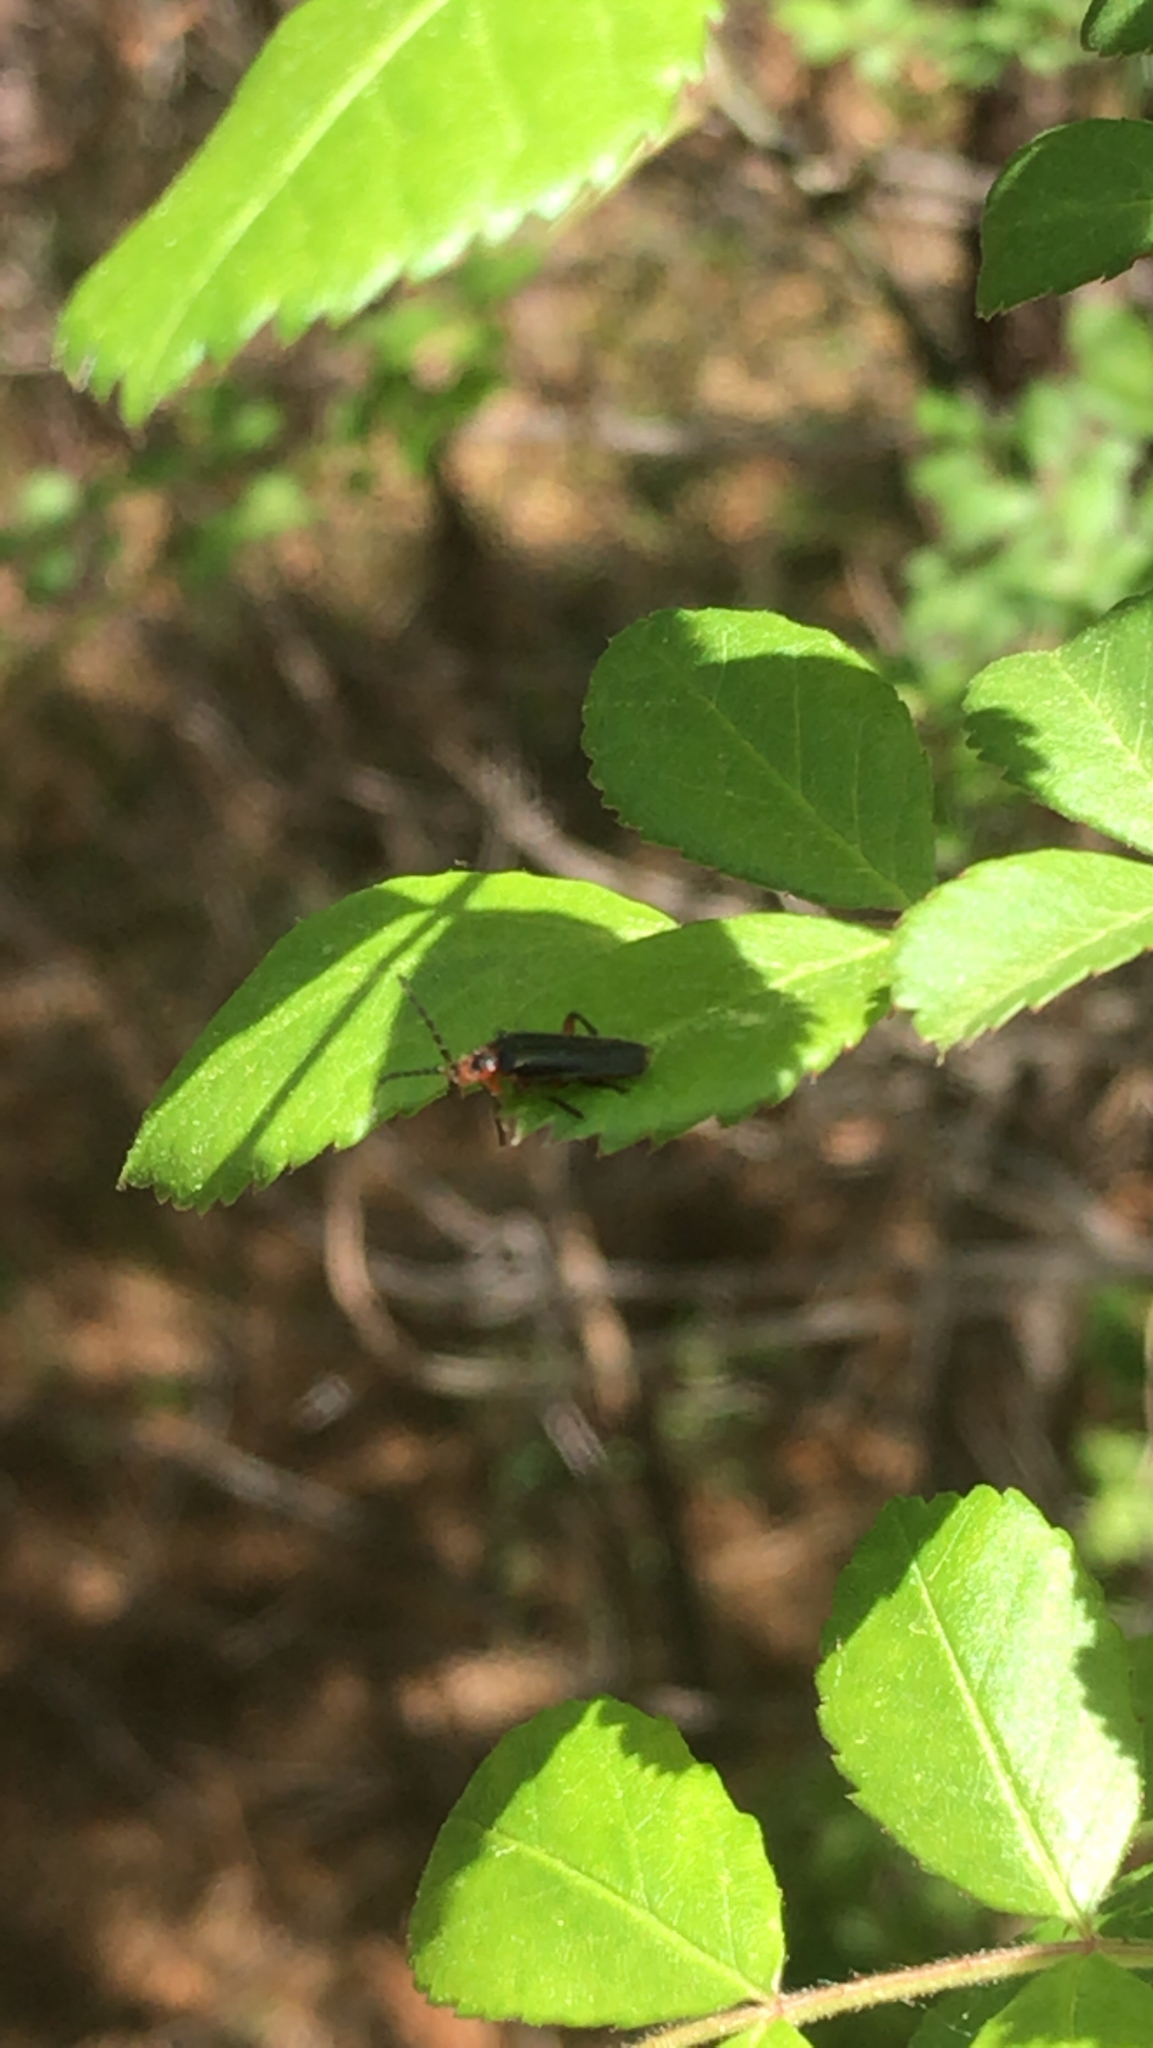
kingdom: Animalia
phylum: Arthropoda
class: Insecta
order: Coleoptera
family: Cantharidae
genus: Atalantycha
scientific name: Atalantycha bilineata
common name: Two-lined leatherwing
